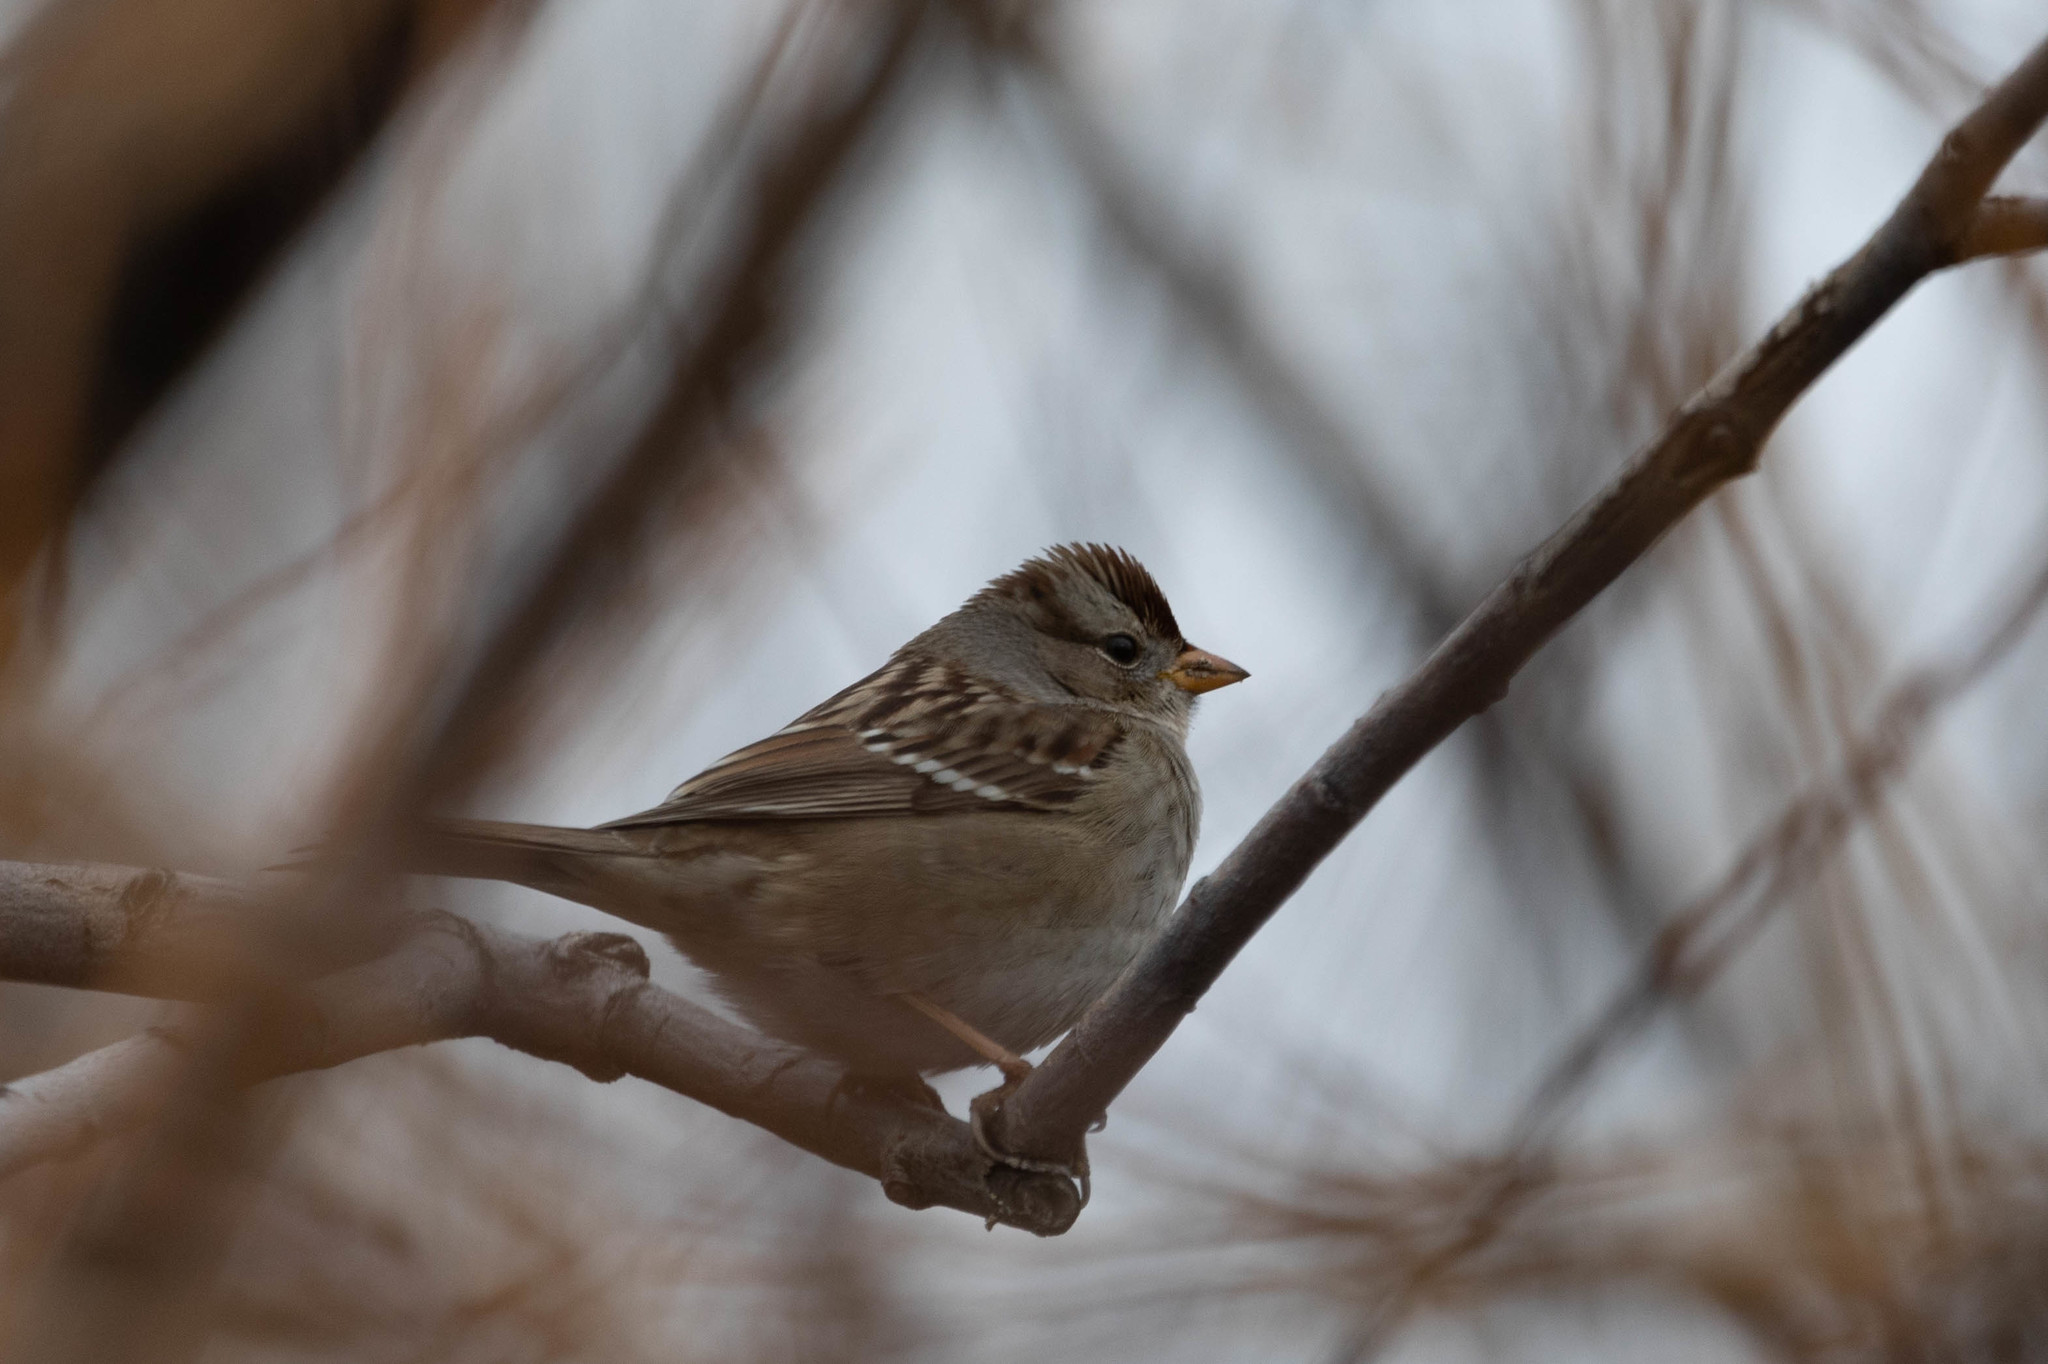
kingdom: Animalia
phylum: Chordata
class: Aves
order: Passeriformes
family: Passerellidae
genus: Zonotrichia
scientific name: Zonotrichia leucophrys
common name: White-crowned sparrow
